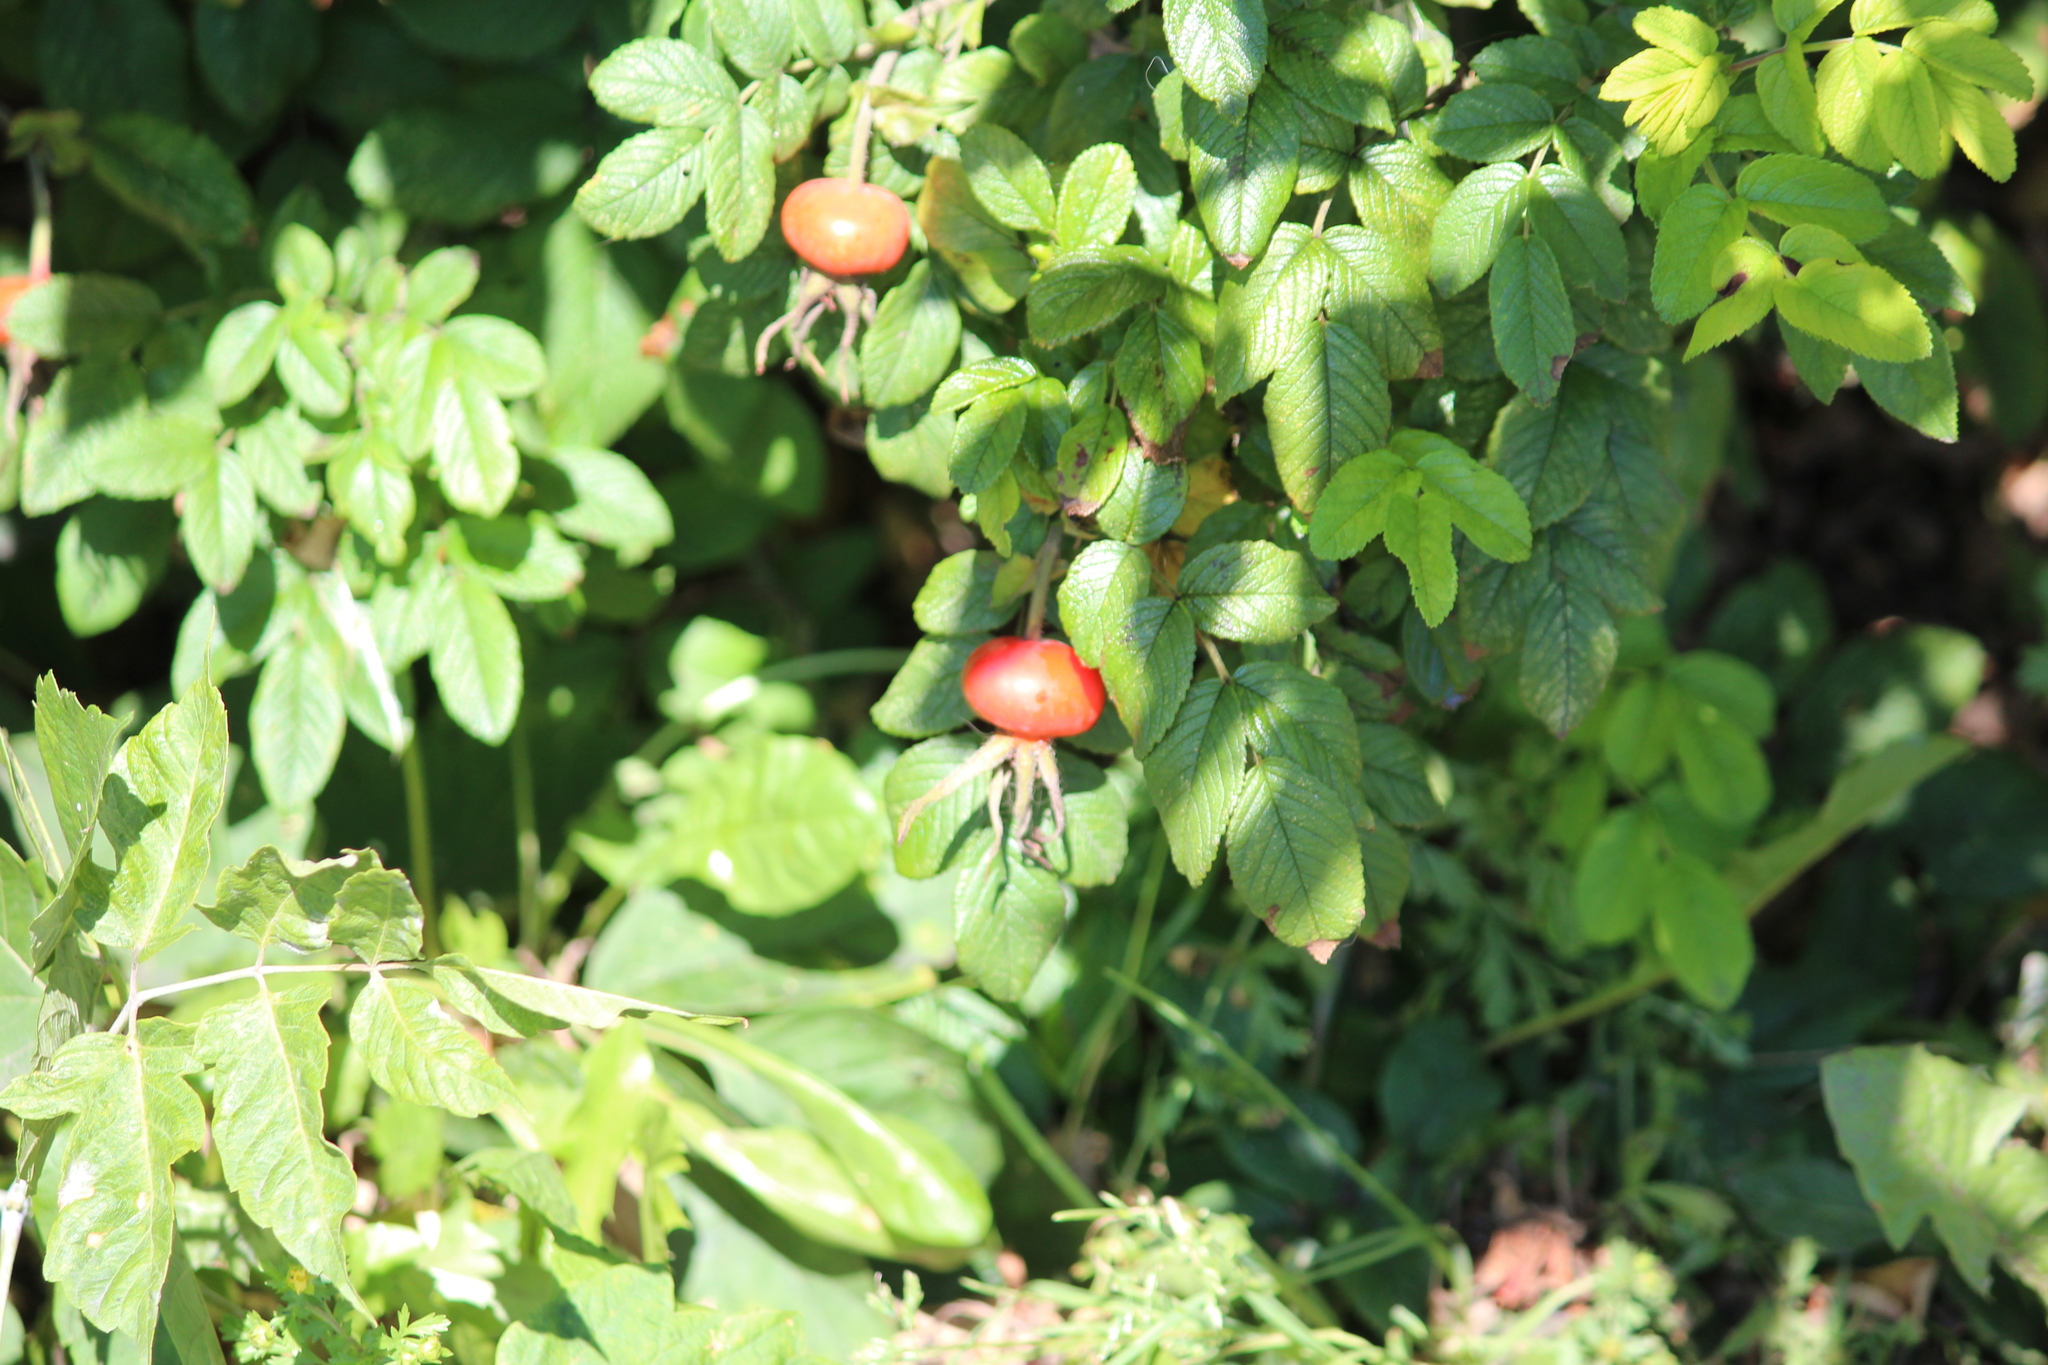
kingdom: Plantae
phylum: Tracheophyta
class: Magnoliopsida
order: Rosales
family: Rosaceae
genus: Rosa
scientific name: Rosa rugosa
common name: Japanese rose
